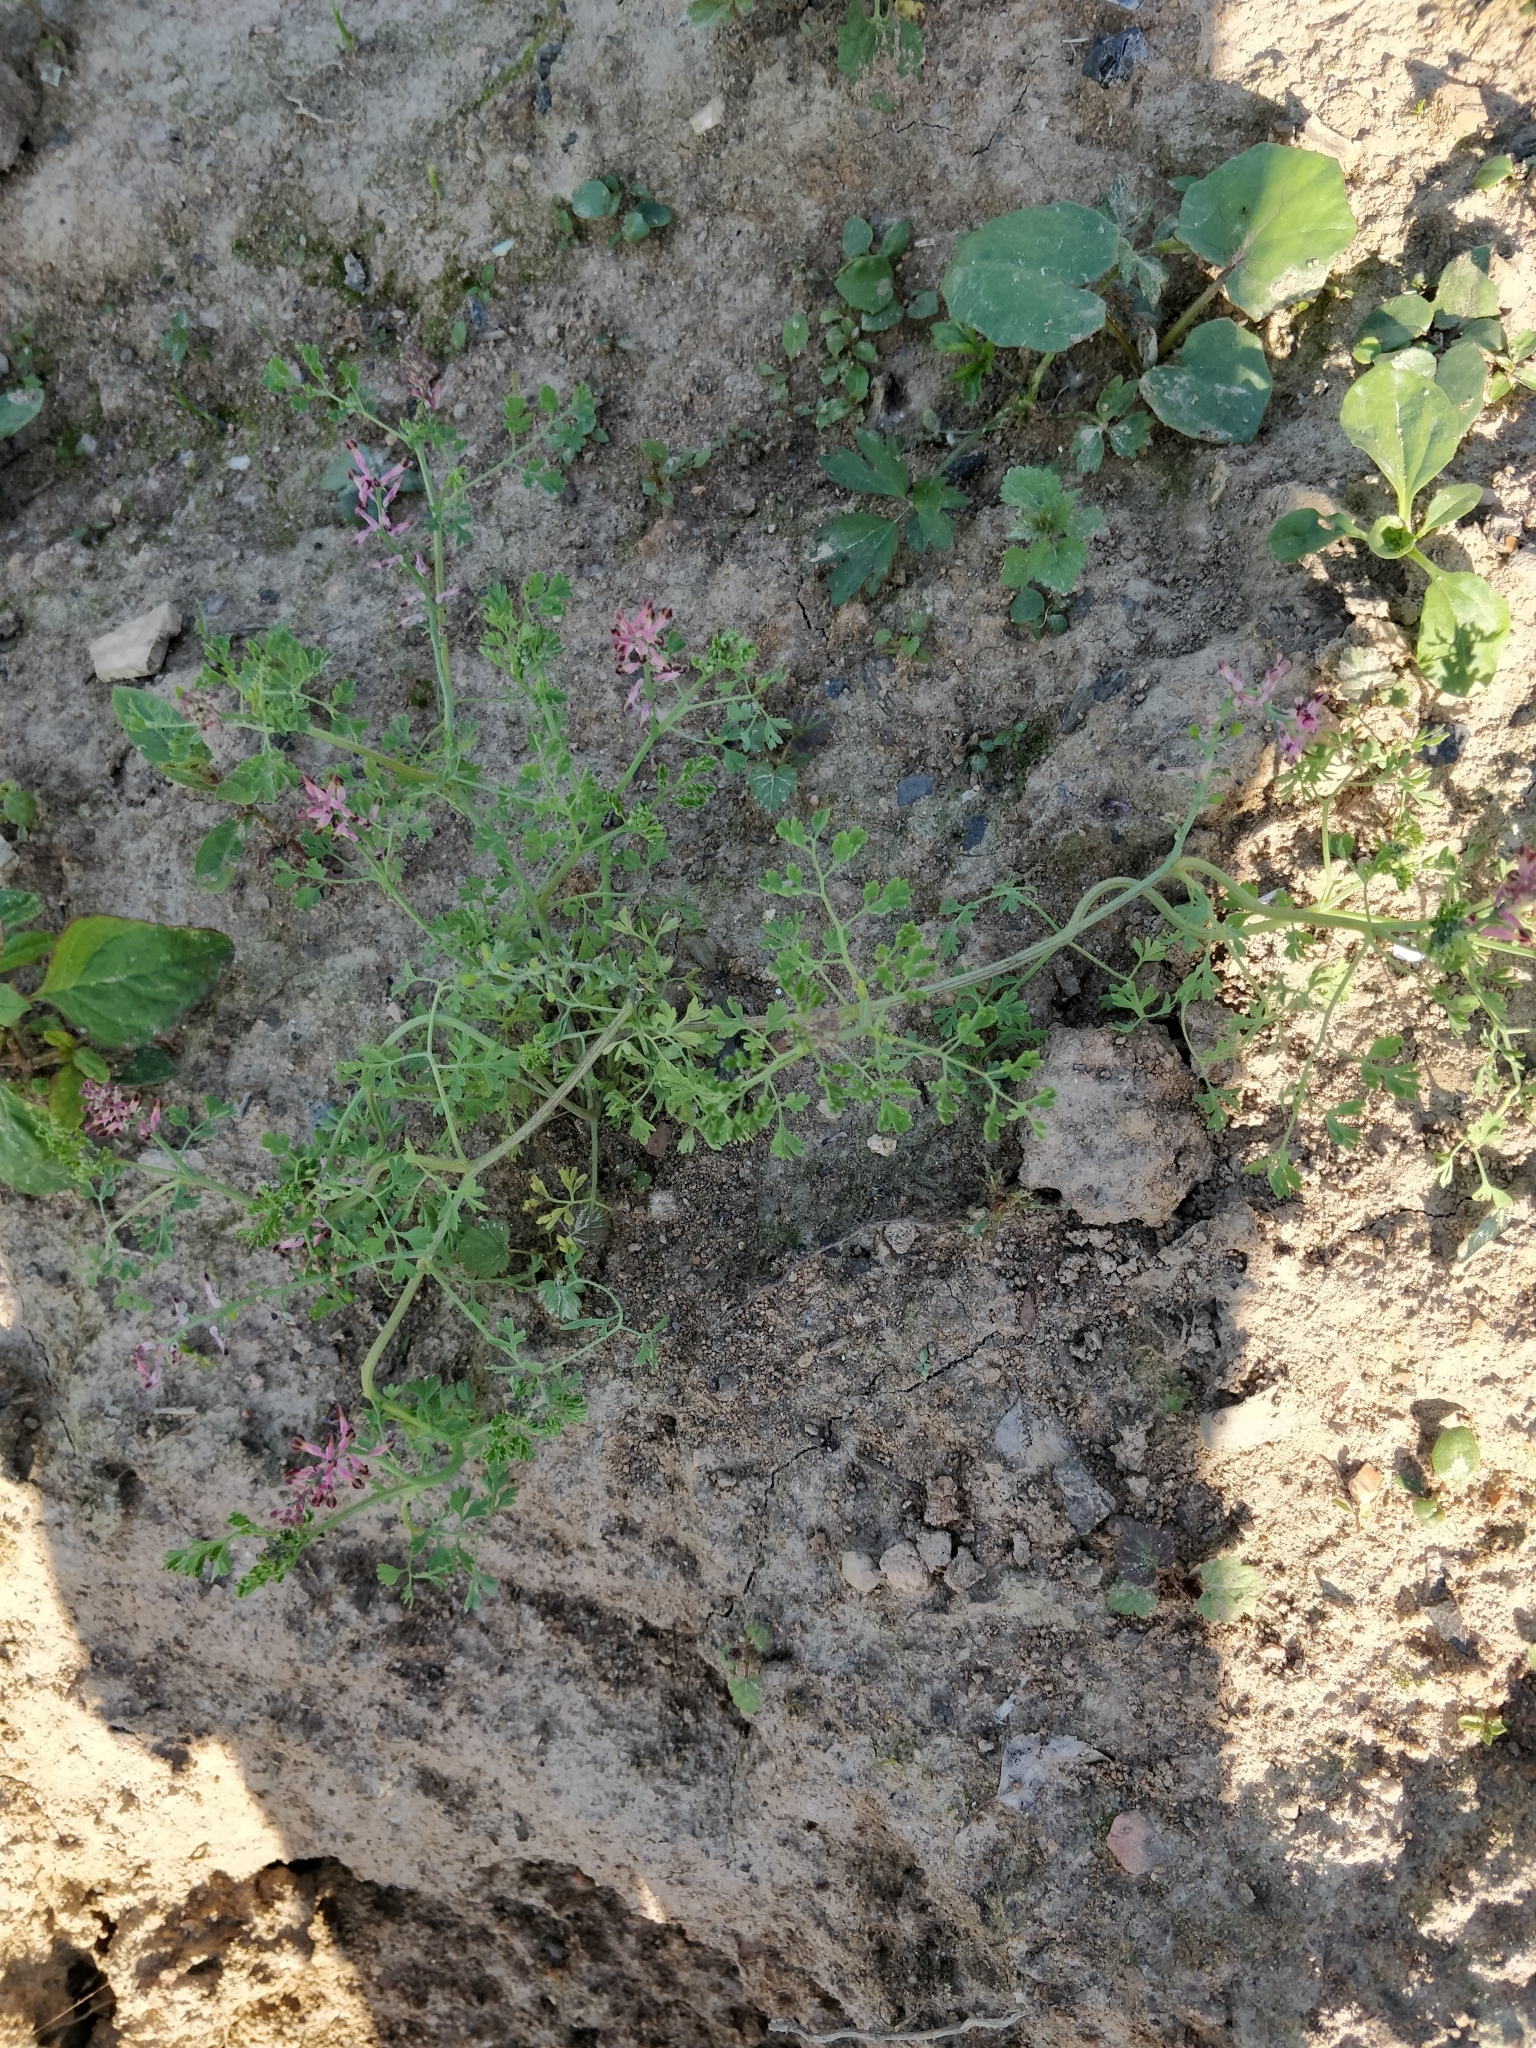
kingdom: Plantae
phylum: Tracheophyta
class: Magnoliopsida
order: Ranunculales
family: Papaveraceae
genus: Fumaria
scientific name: Fumaria officinalis
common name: Common fumitory
